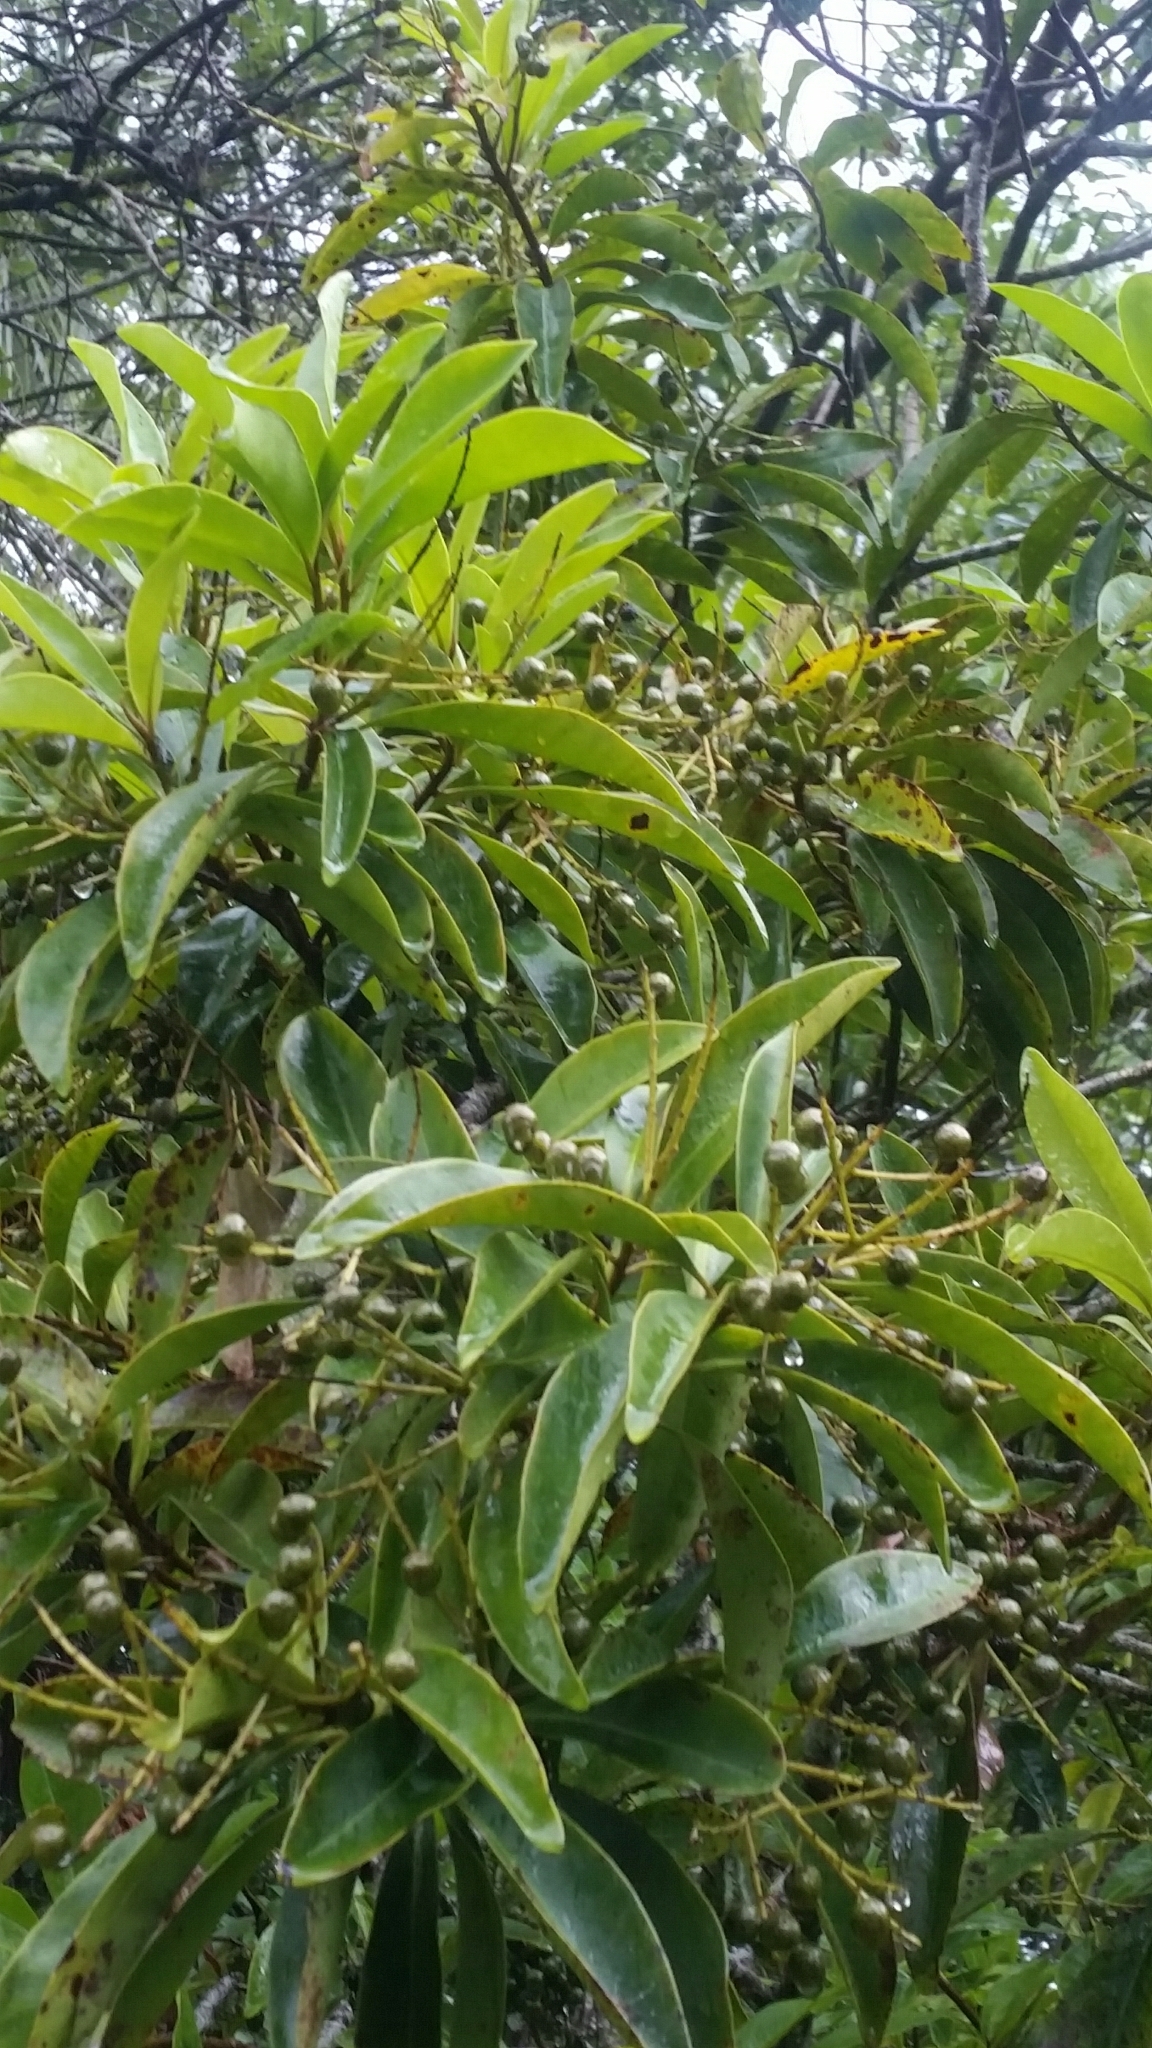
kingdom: Plantae
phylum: Tracheophyta
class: Magnoliopsida
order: Ericales
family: Primulaceae
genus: Ardisia
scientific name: Ardisia escallonioides
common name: Island marlberry
